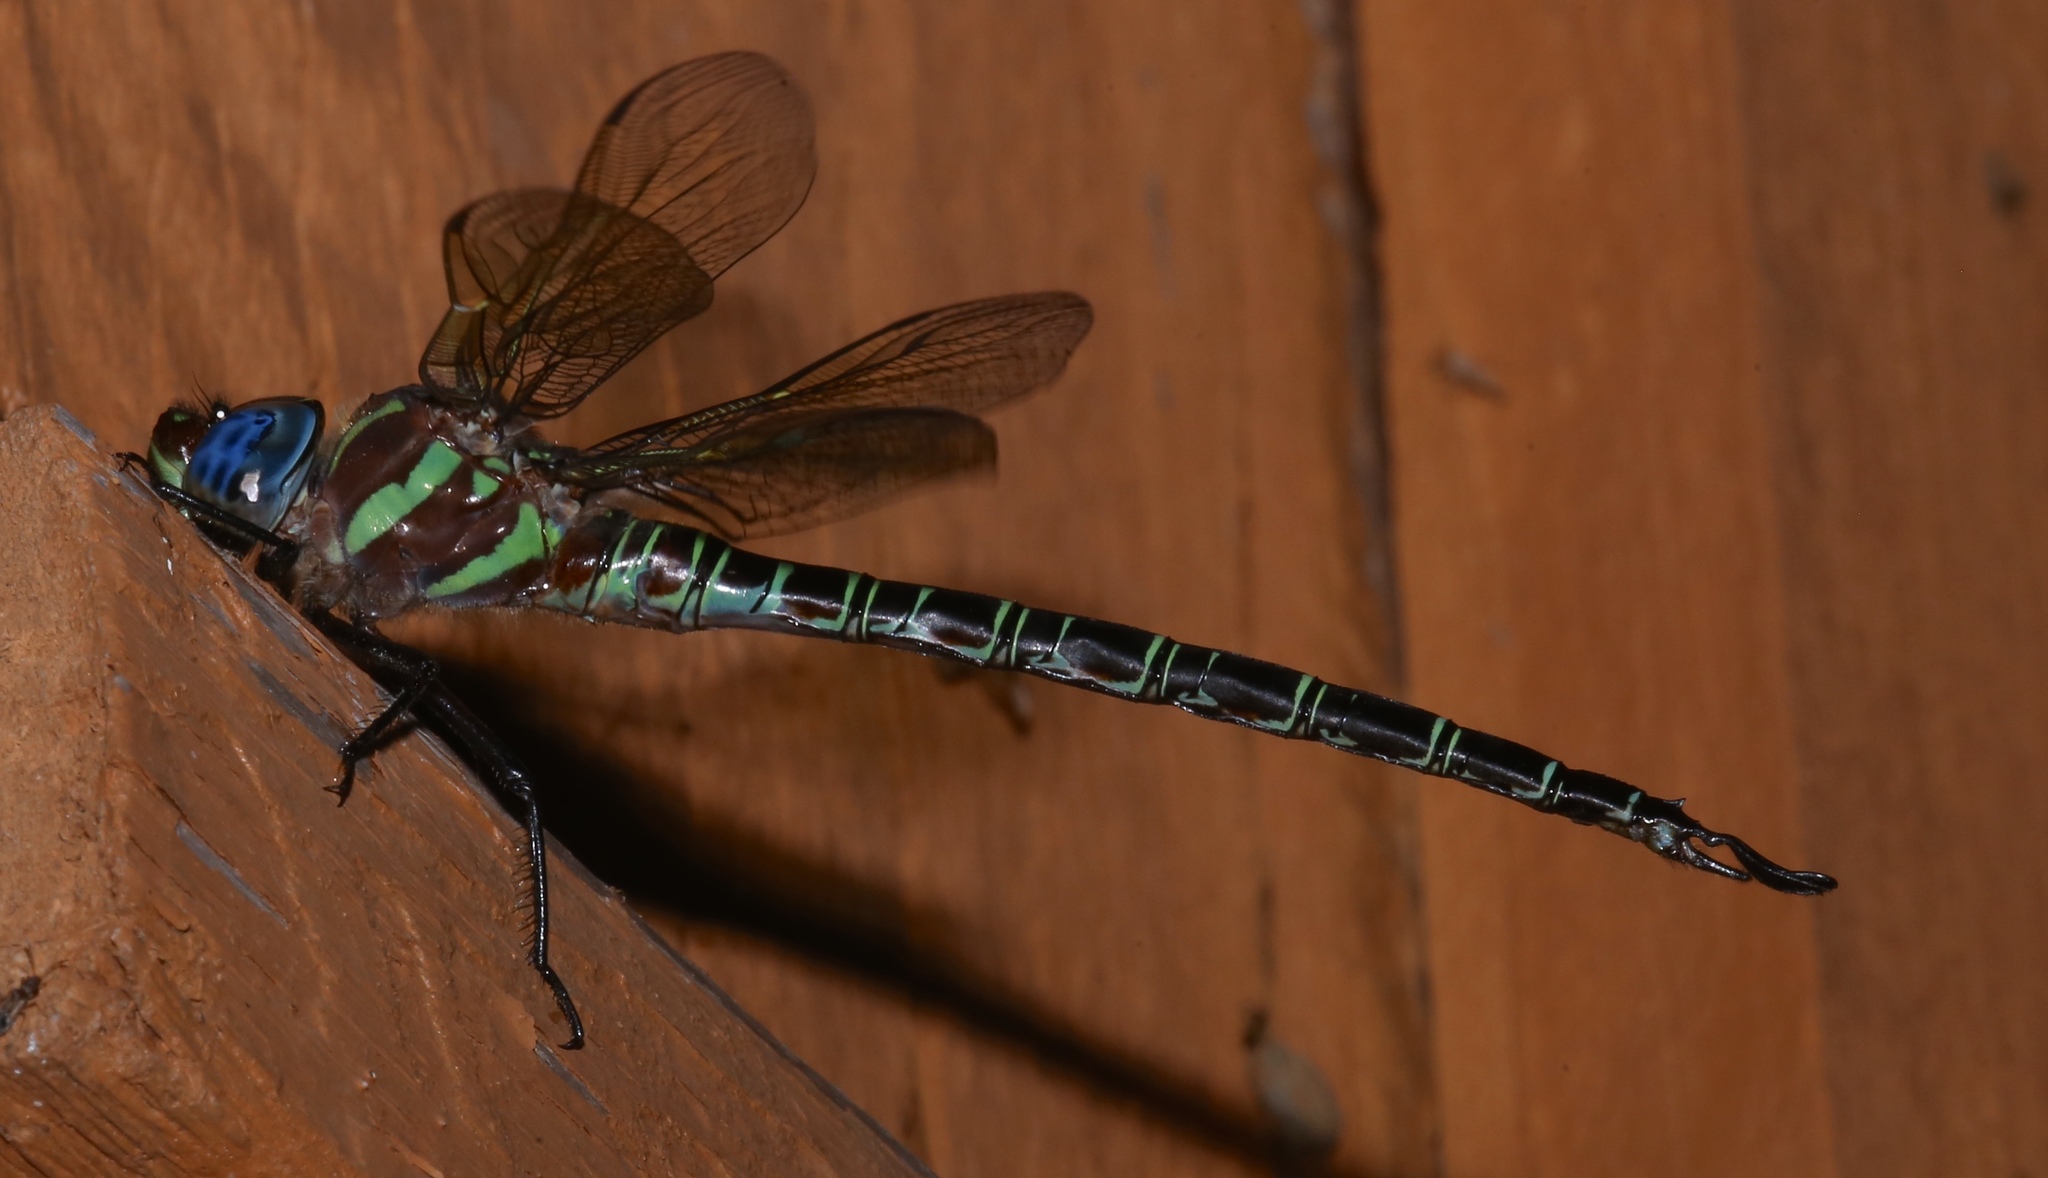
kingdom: Animalia
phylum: Arthropoda
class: Insecta
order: Odonata
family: Aeshnidae
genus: Epiaeschna
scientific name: Epiaeschna heros
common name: Swamp darner
